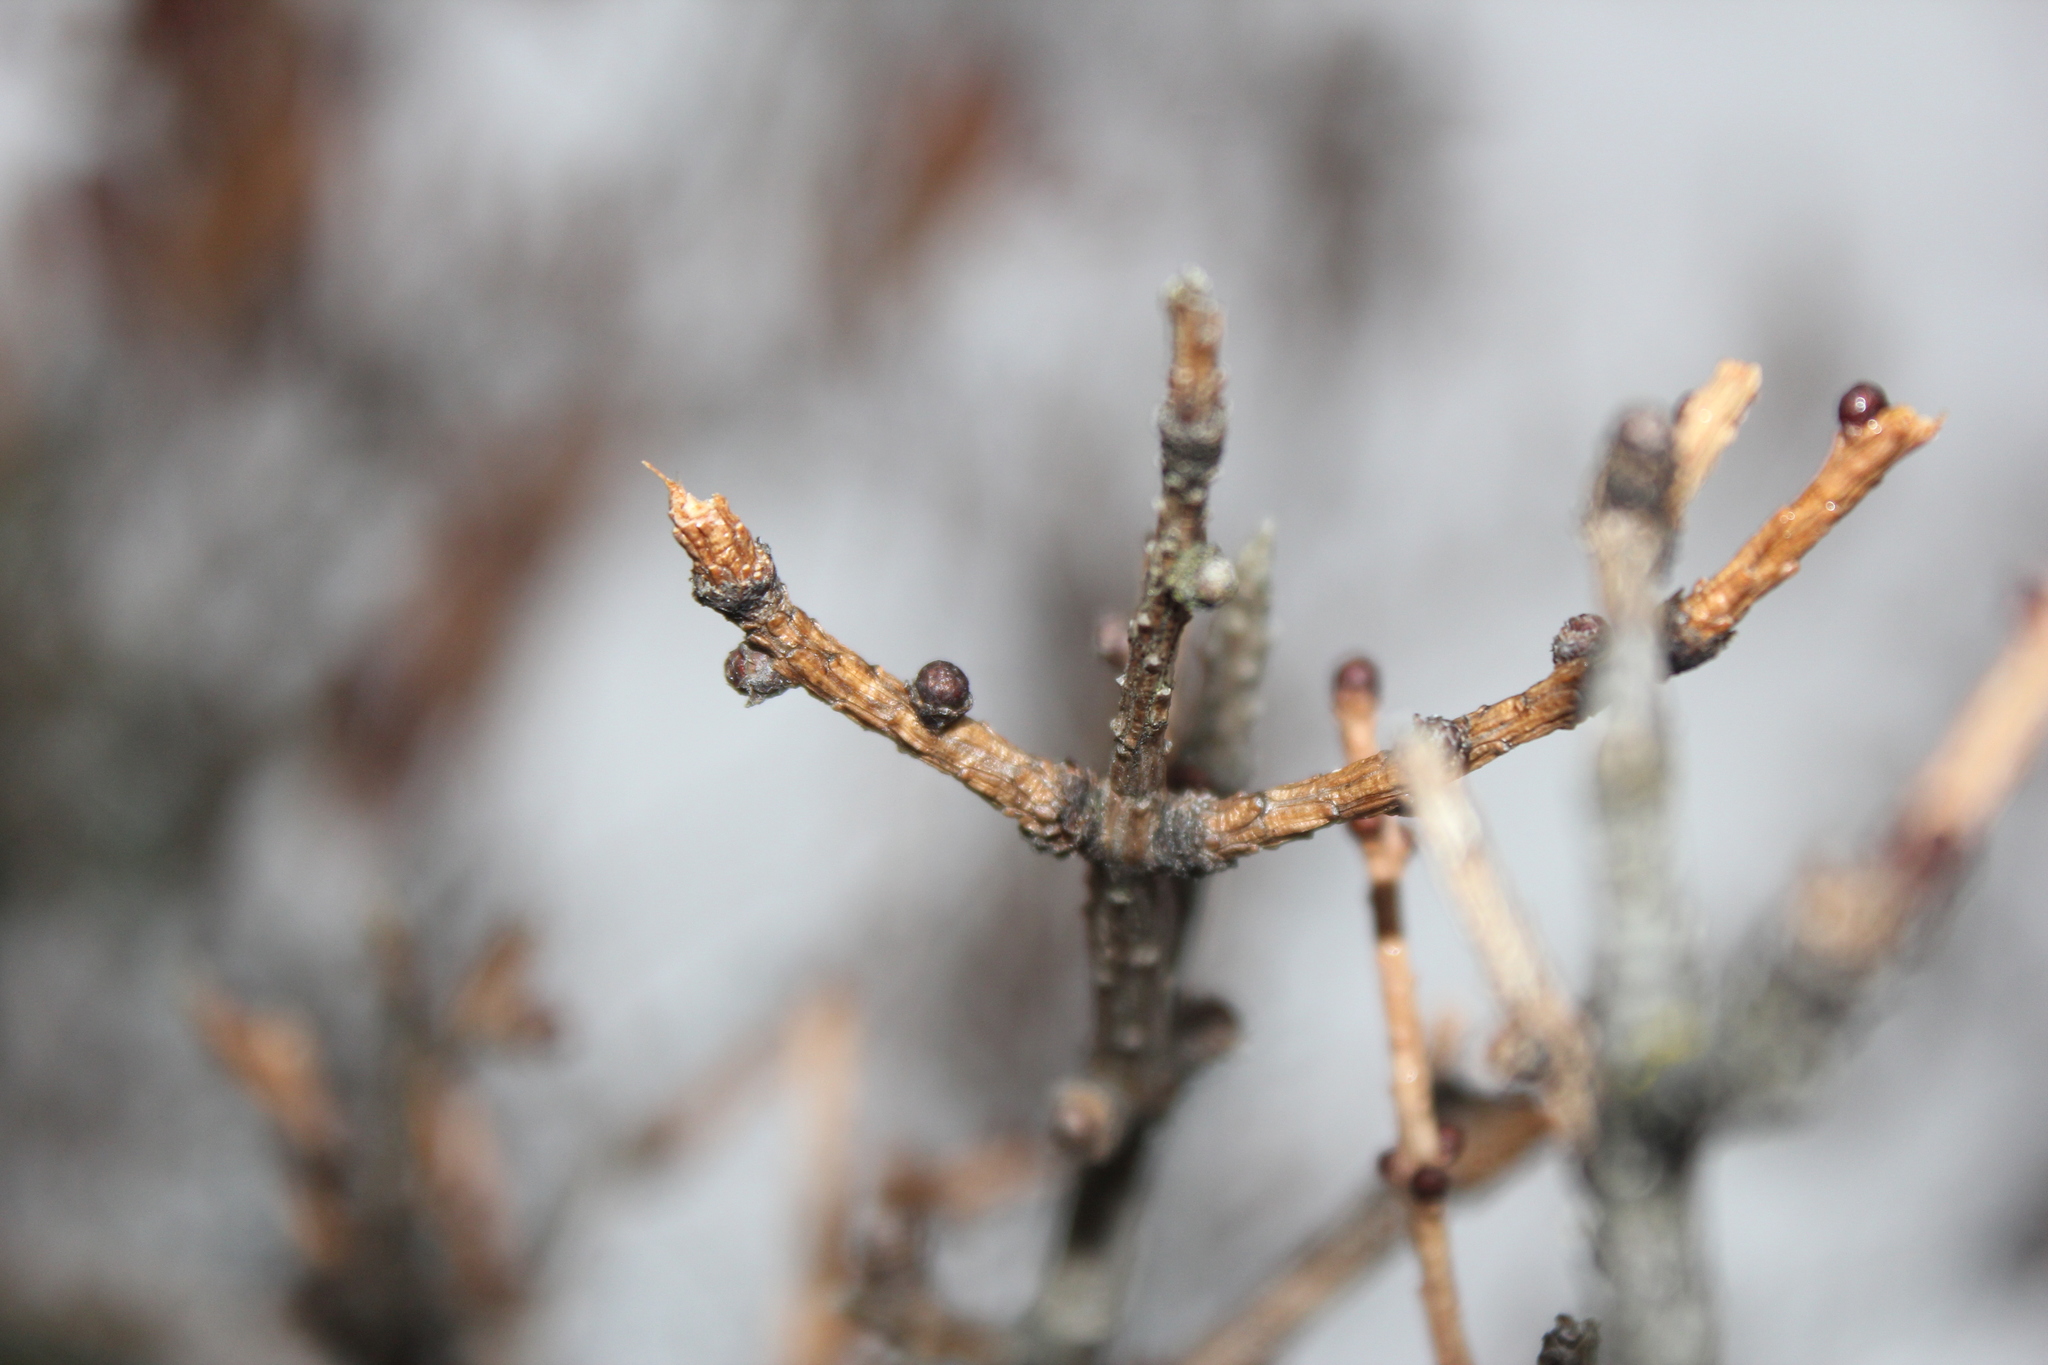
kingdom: Plantae
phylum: Tracheophyta
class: Pinopsida
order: Pinales
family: Pinaceae
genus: Larix
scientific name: Larix laricina
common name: American larch
